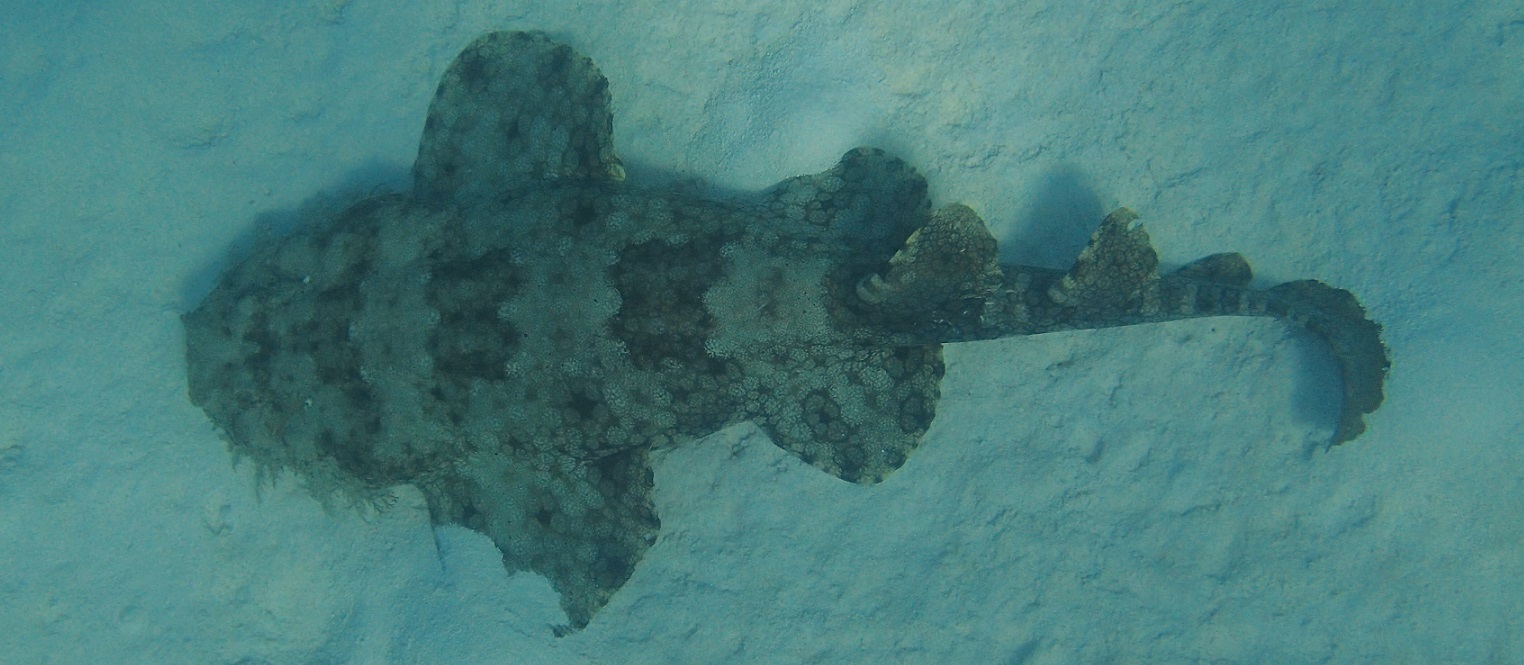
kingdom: Animalia
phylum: Chordata
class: Elasmobranchii
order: Orectolobiformes
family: Orectolobidae
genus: Eucrossorhinus
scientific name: Eucrossorhinus dasypogon
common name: Tasselled wobbegong
